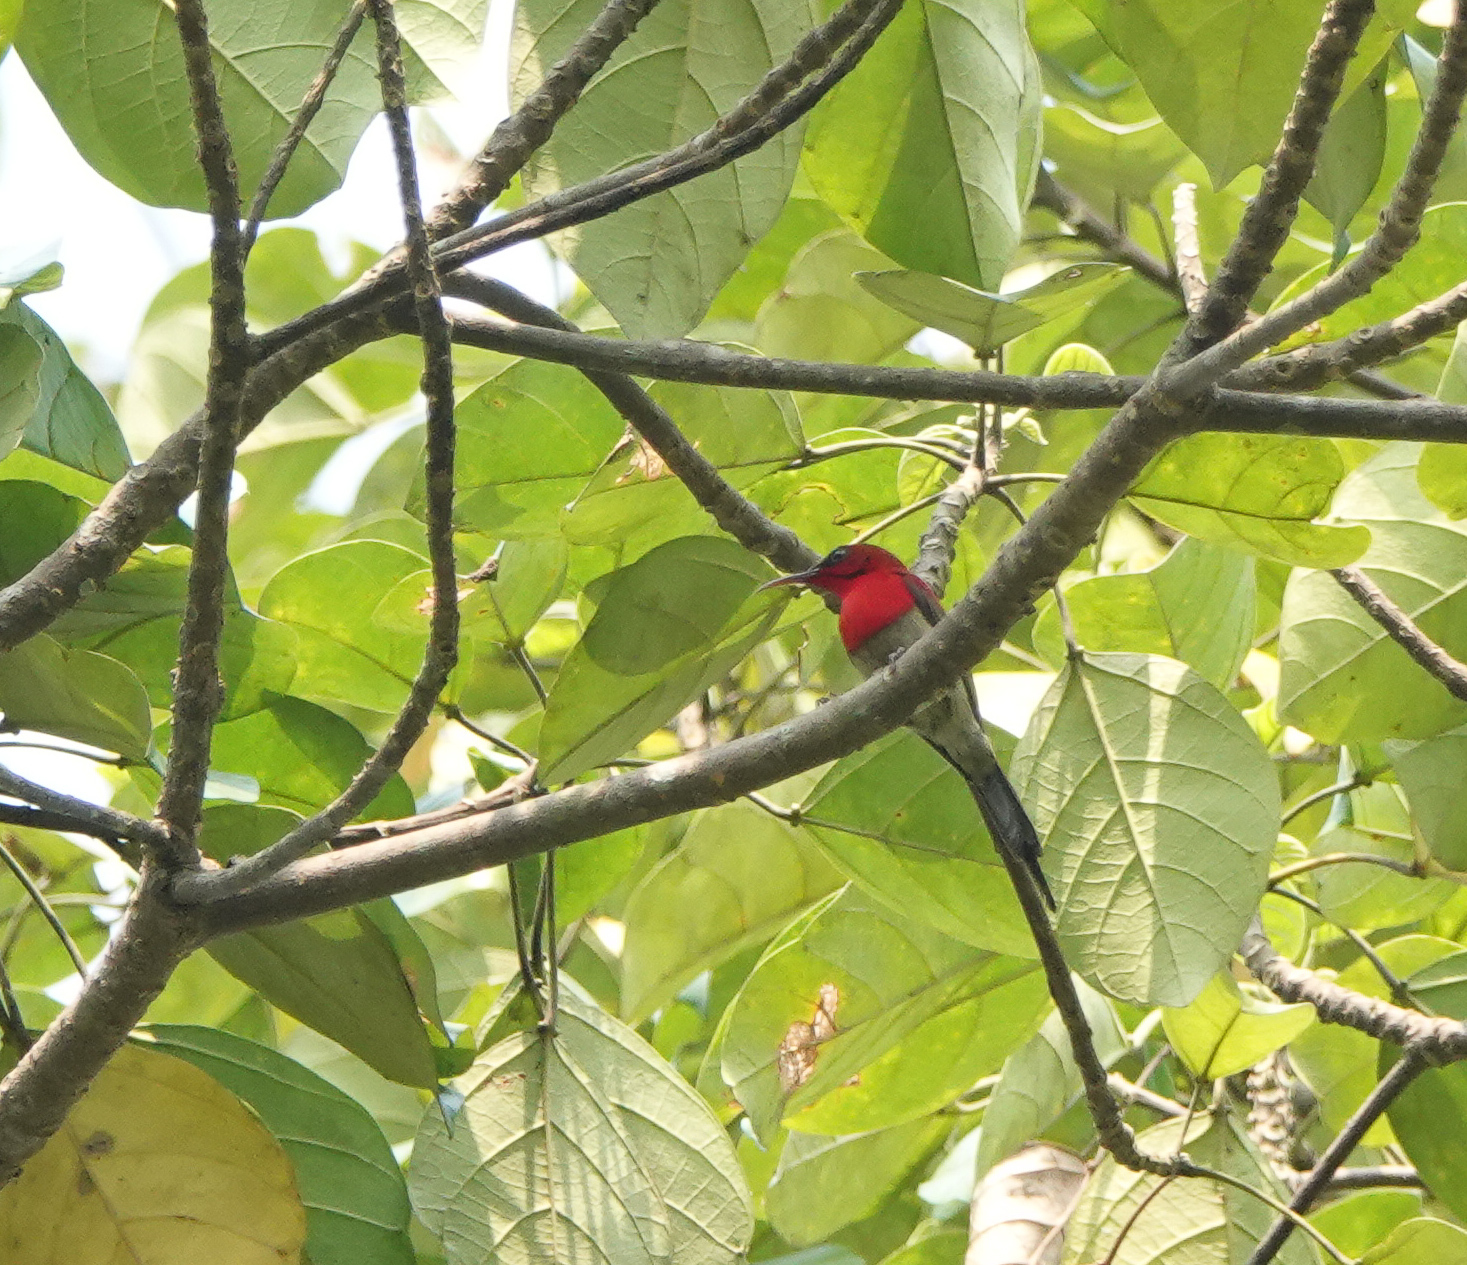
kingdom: Animalia
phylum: Chordata
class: Aves
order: Passeriformes
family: Nectariniidae
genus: Aethopyga
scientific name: Aethopyga siparaja
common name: Crimson sunbird
